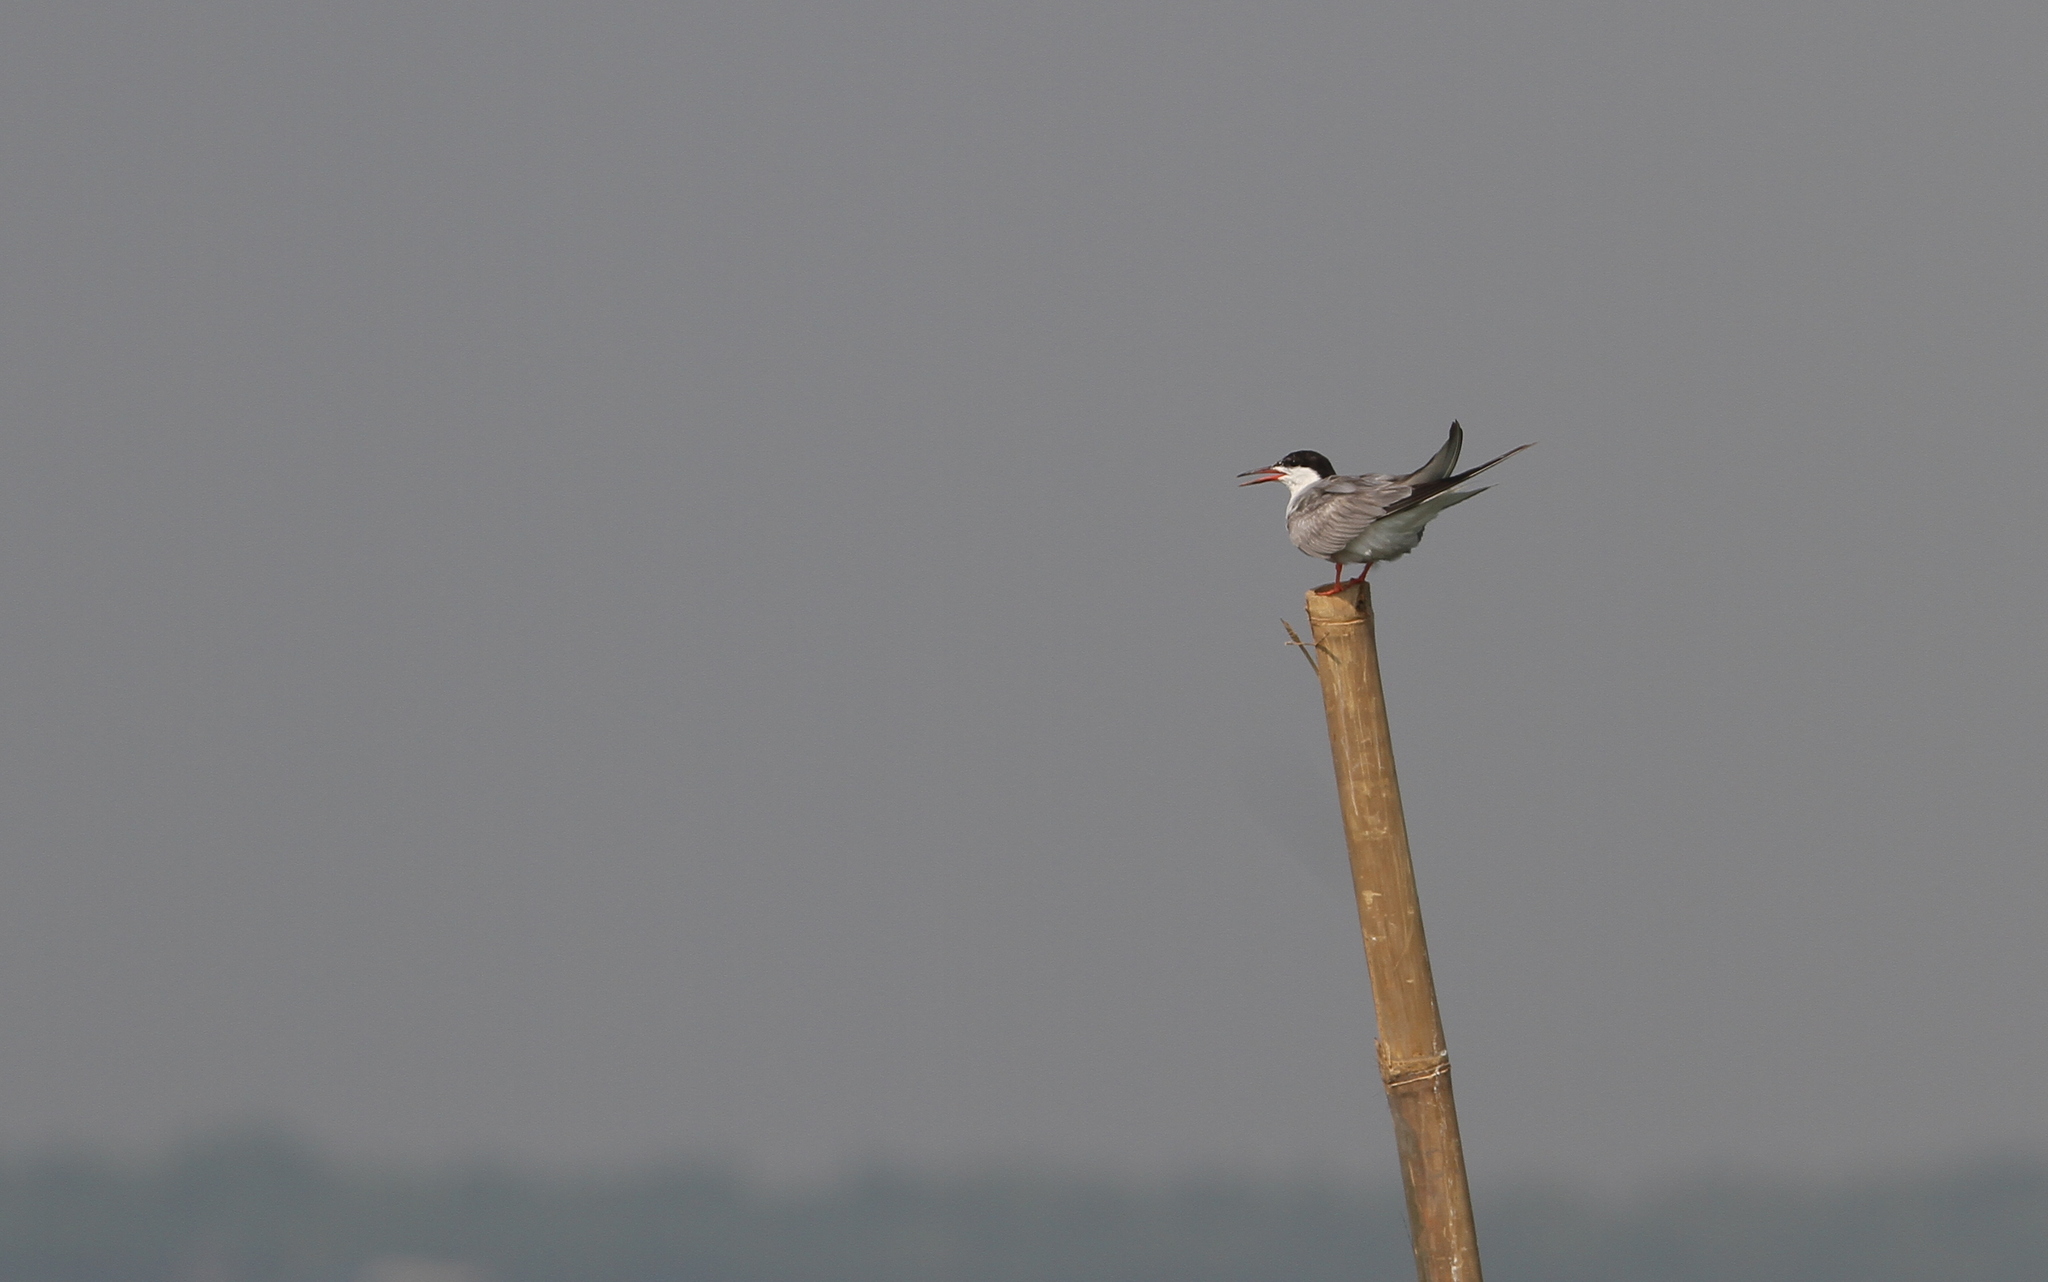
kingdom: Animalia
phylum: Chordata
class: Aves
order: Charadriiformes
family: Laridae
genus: Sterna
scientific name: Sterna hirundo
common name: Common tern
